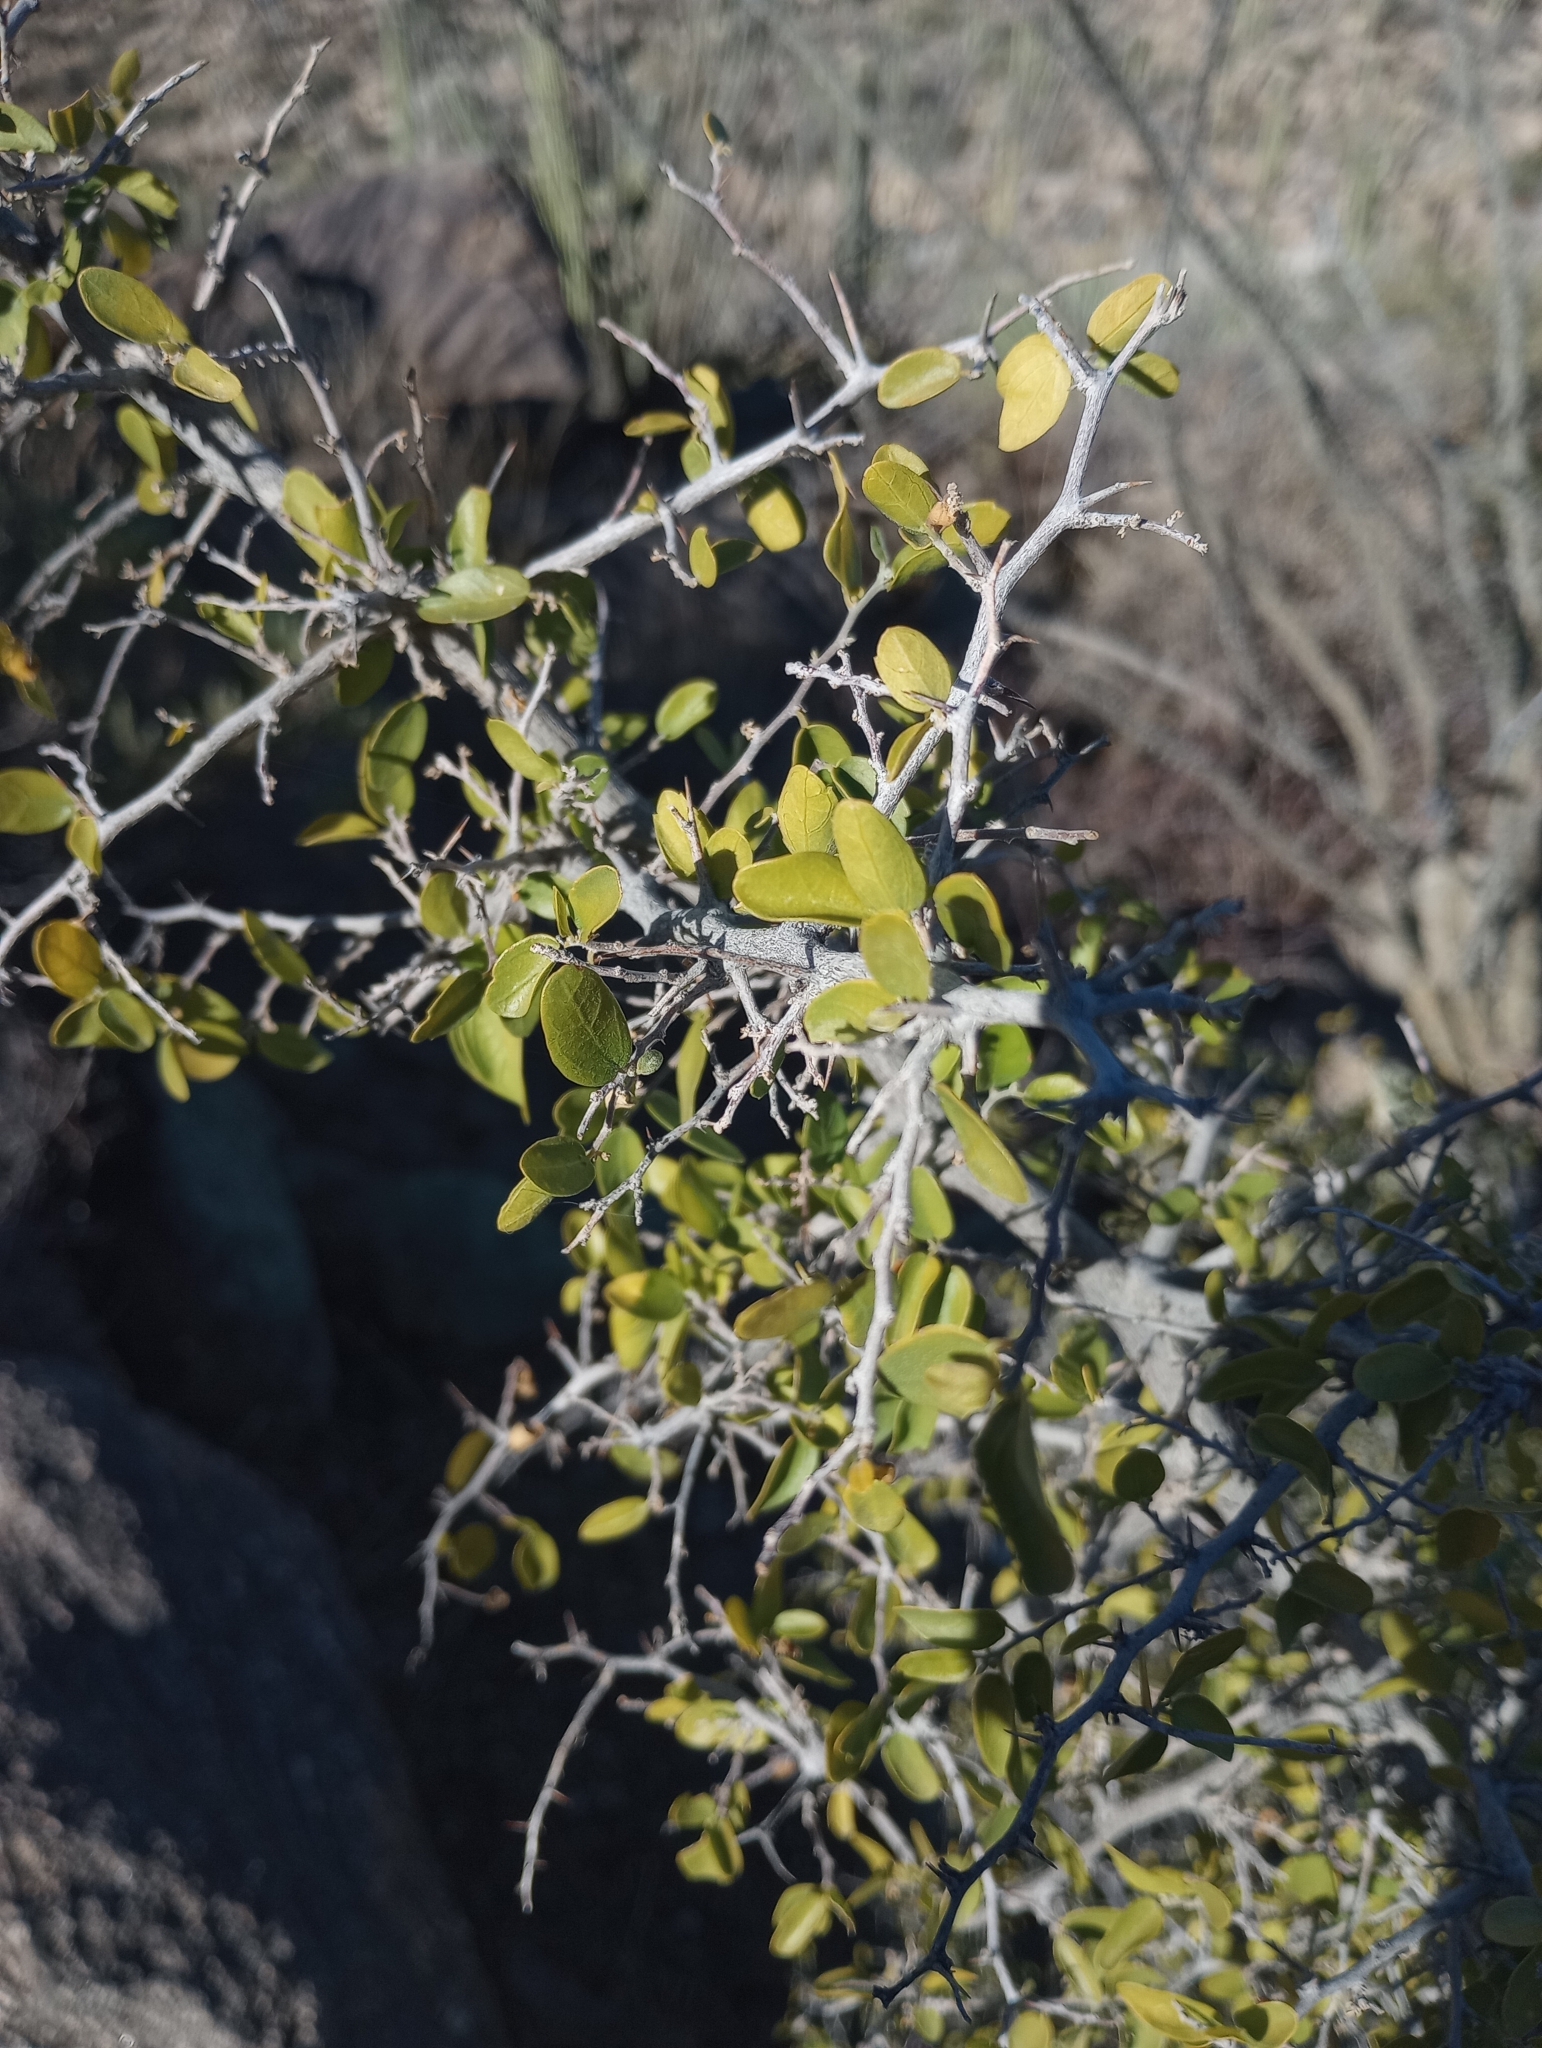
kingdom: Plantae
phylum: Tracheophyta
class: Magnoliopsida
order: Rosales
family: Cannabaceae
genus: Celtis
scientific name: Celtis pallida
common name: Desert hackberry
